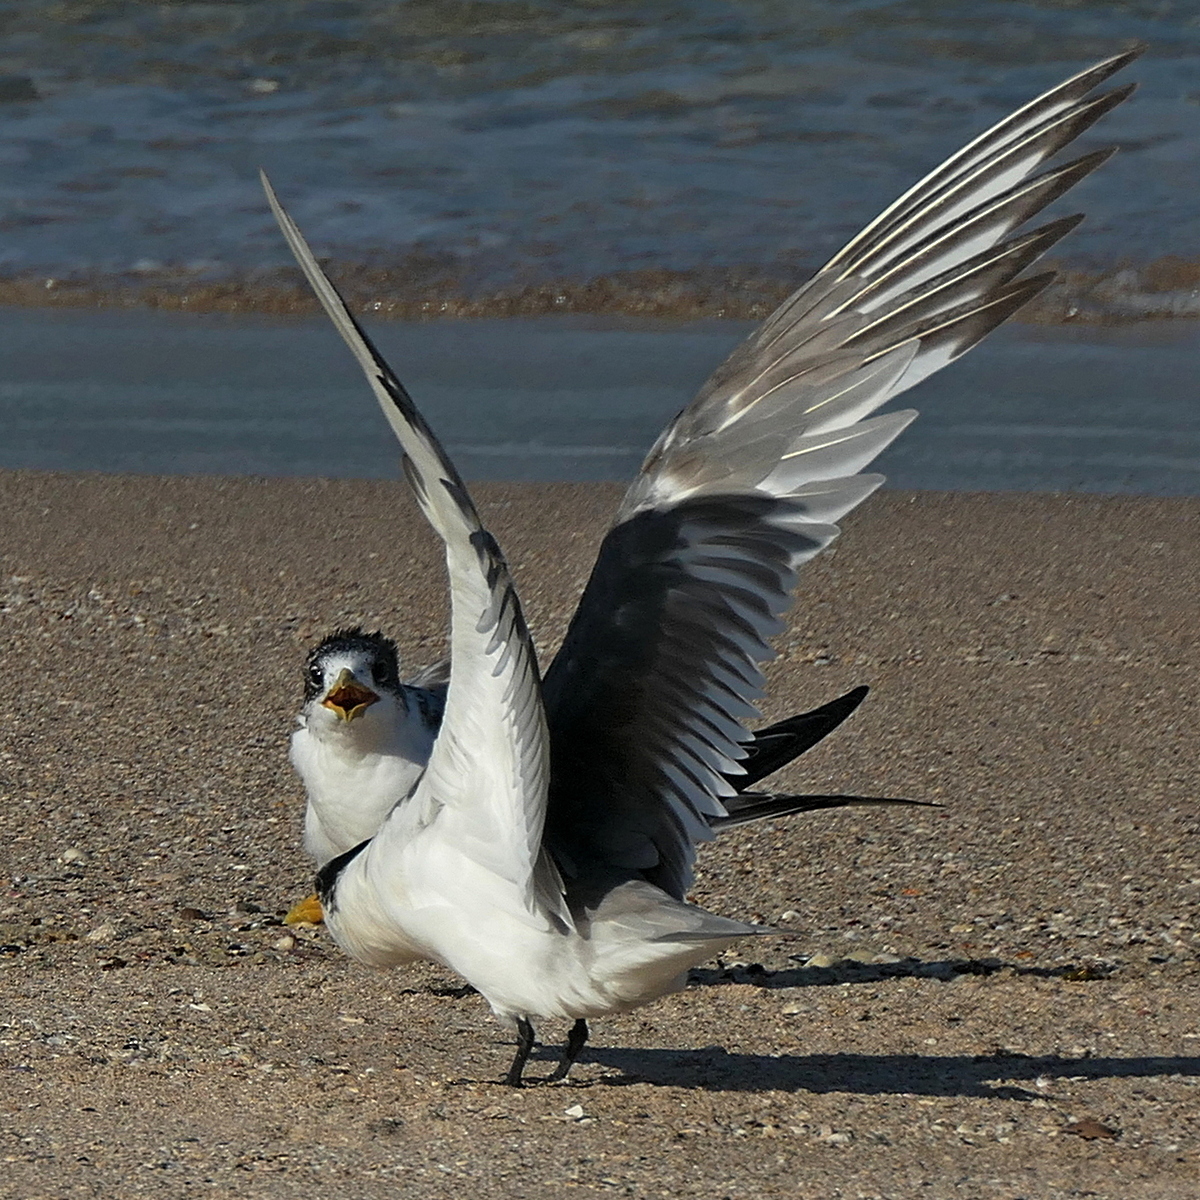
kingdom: Animalia
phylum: Chordata
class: Aves
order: Charadriiformes
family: Laridae
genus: Thalasseus
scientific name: Thalasseus bergii
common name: Greater crested tern
